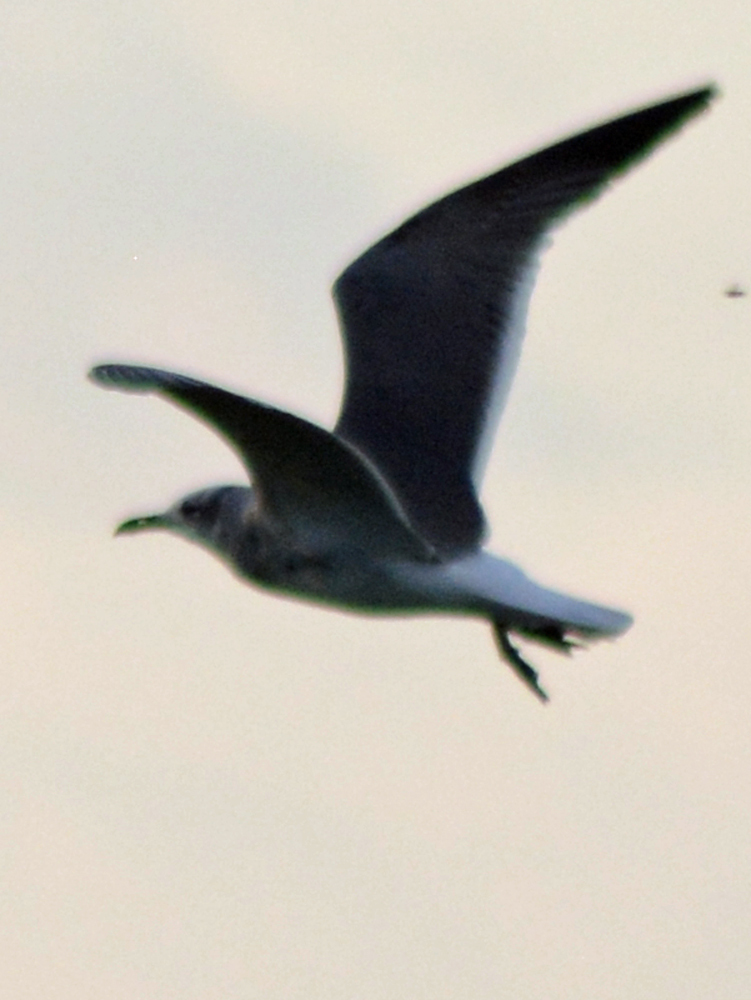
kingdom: Animalia
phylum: Chordata
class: Aves
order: Charadriiformes
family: Laridae
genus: Leucophaeus
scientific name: Leucophaeus atricilla
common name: Laughing gull
